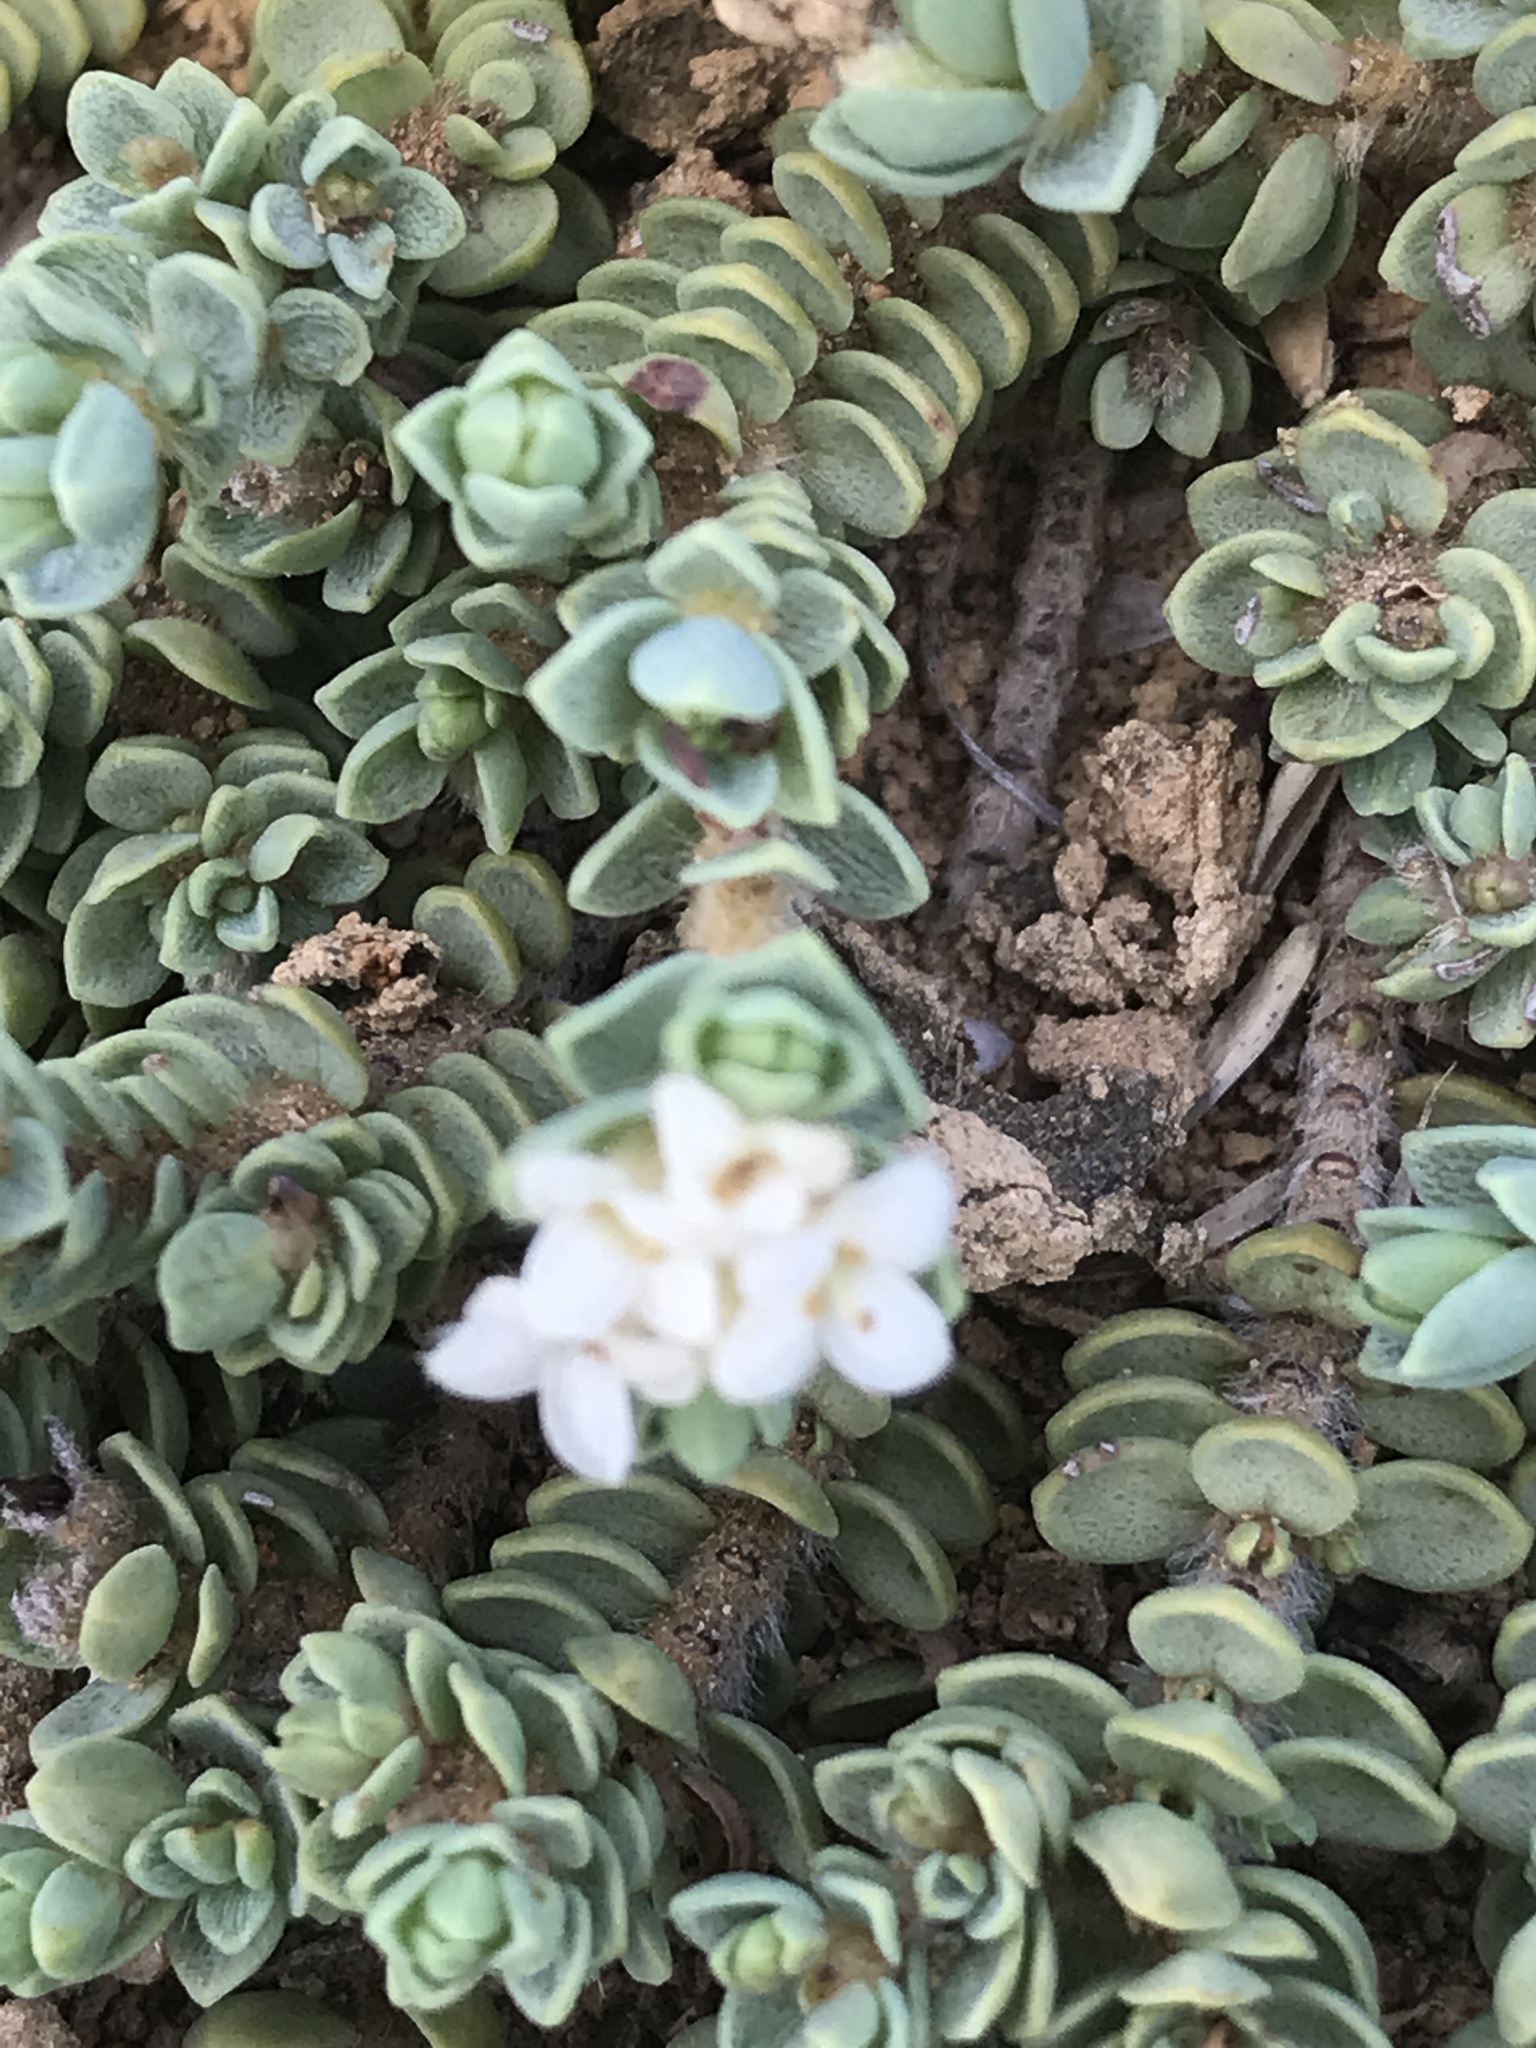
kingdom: Plantae
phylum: Tracheophyta
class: Magnoliopsida
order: Malvales
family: Thymelaeaceae
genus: Pimelea
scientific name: Pimelea carnosa
